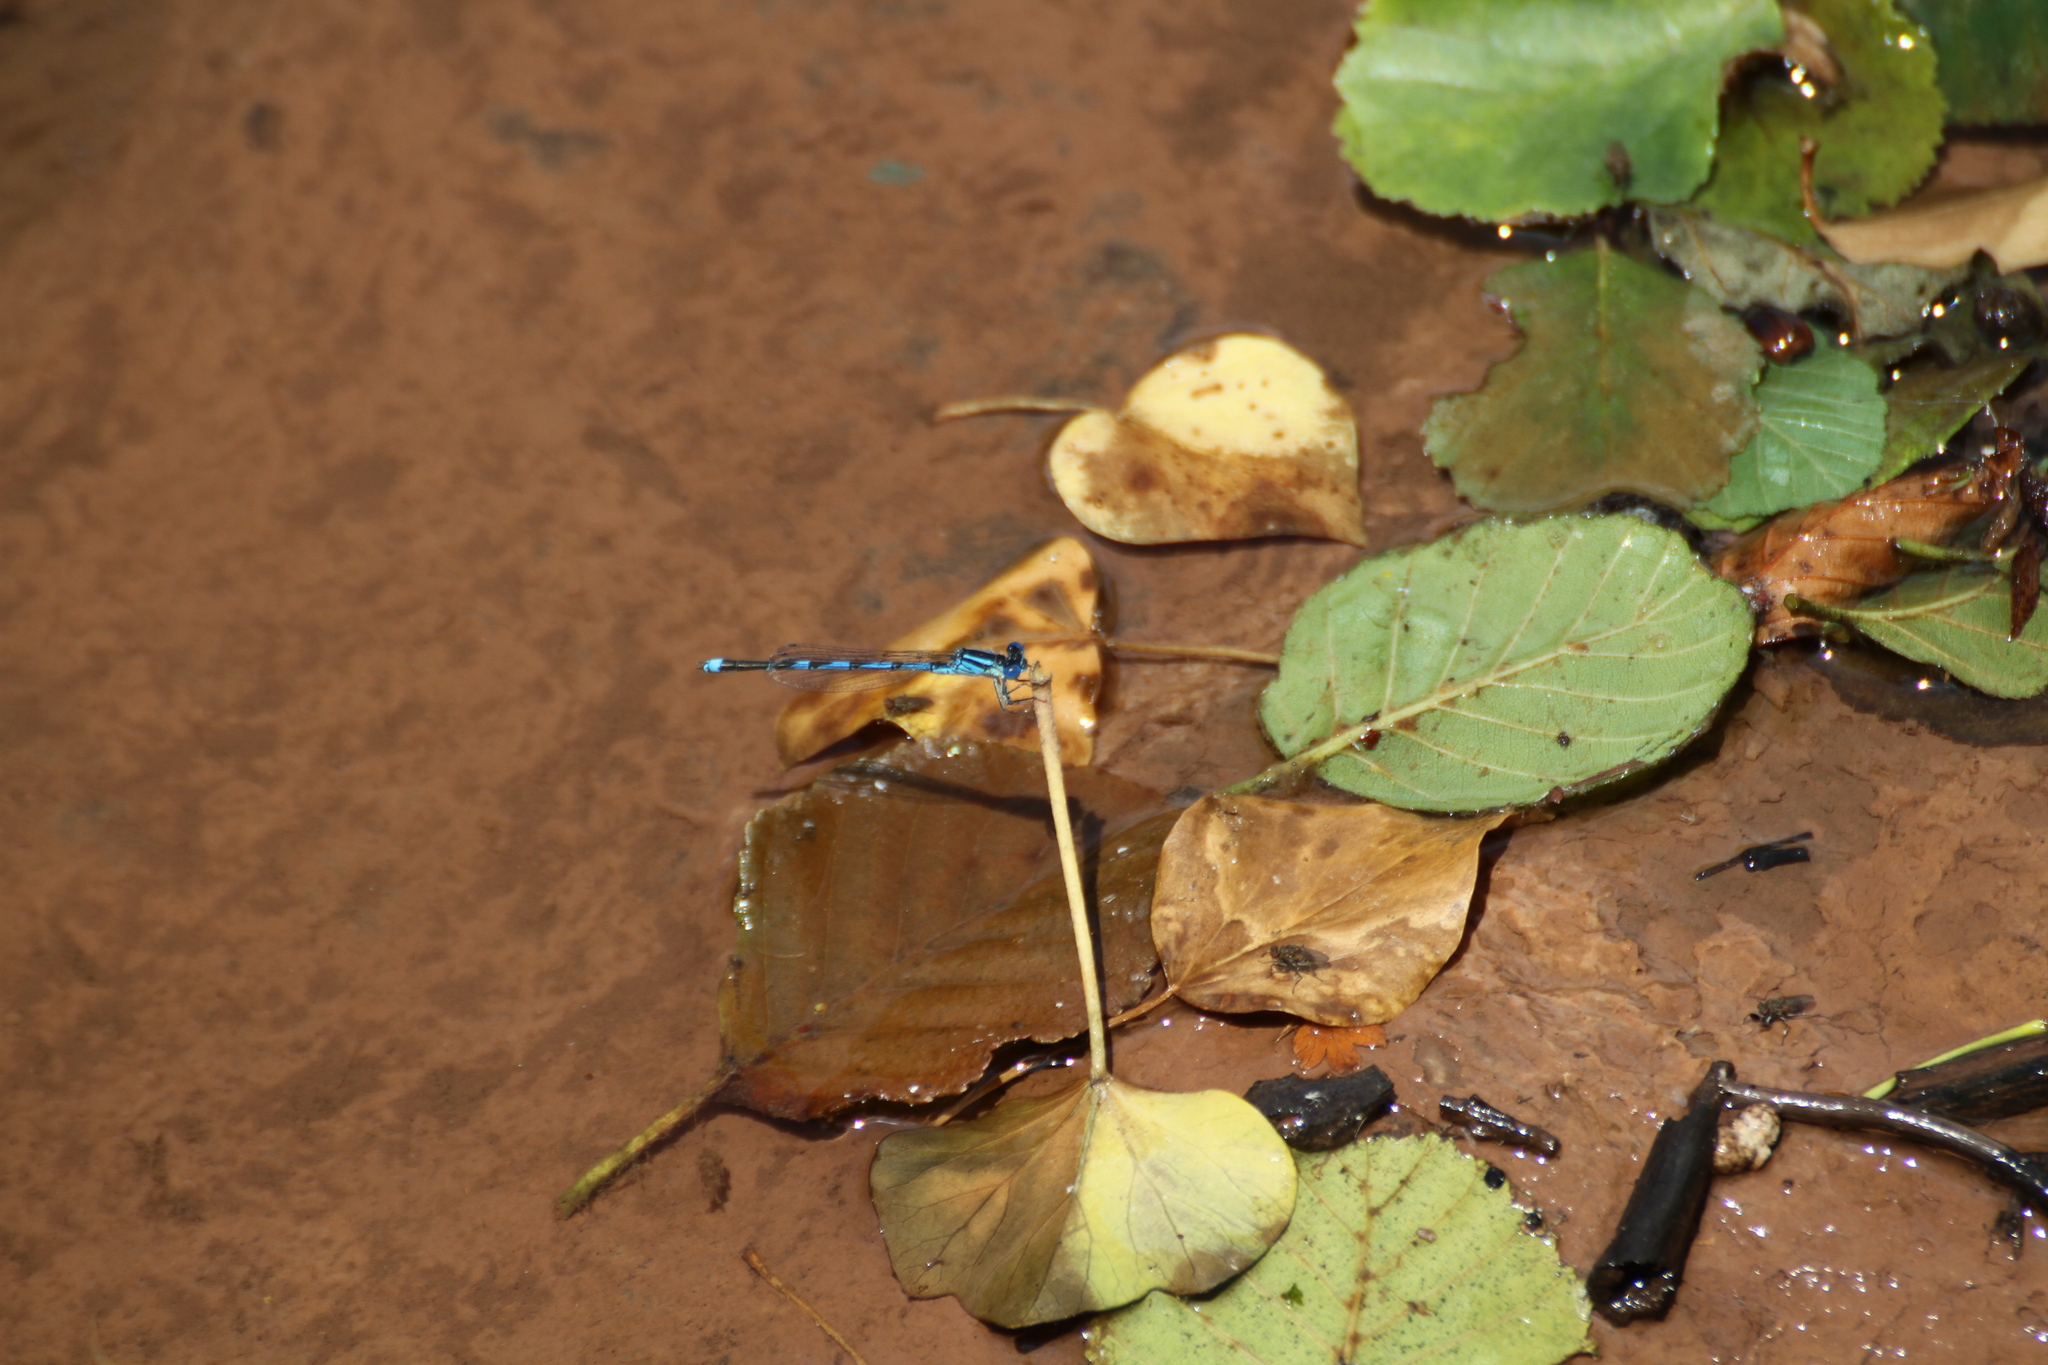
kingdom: Animalia
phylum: Arthropoda
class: Insecta
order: Odonata
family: Coenagrionidae
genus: Erythromma
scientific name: Erythromma lindenii
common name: Blue-eye
